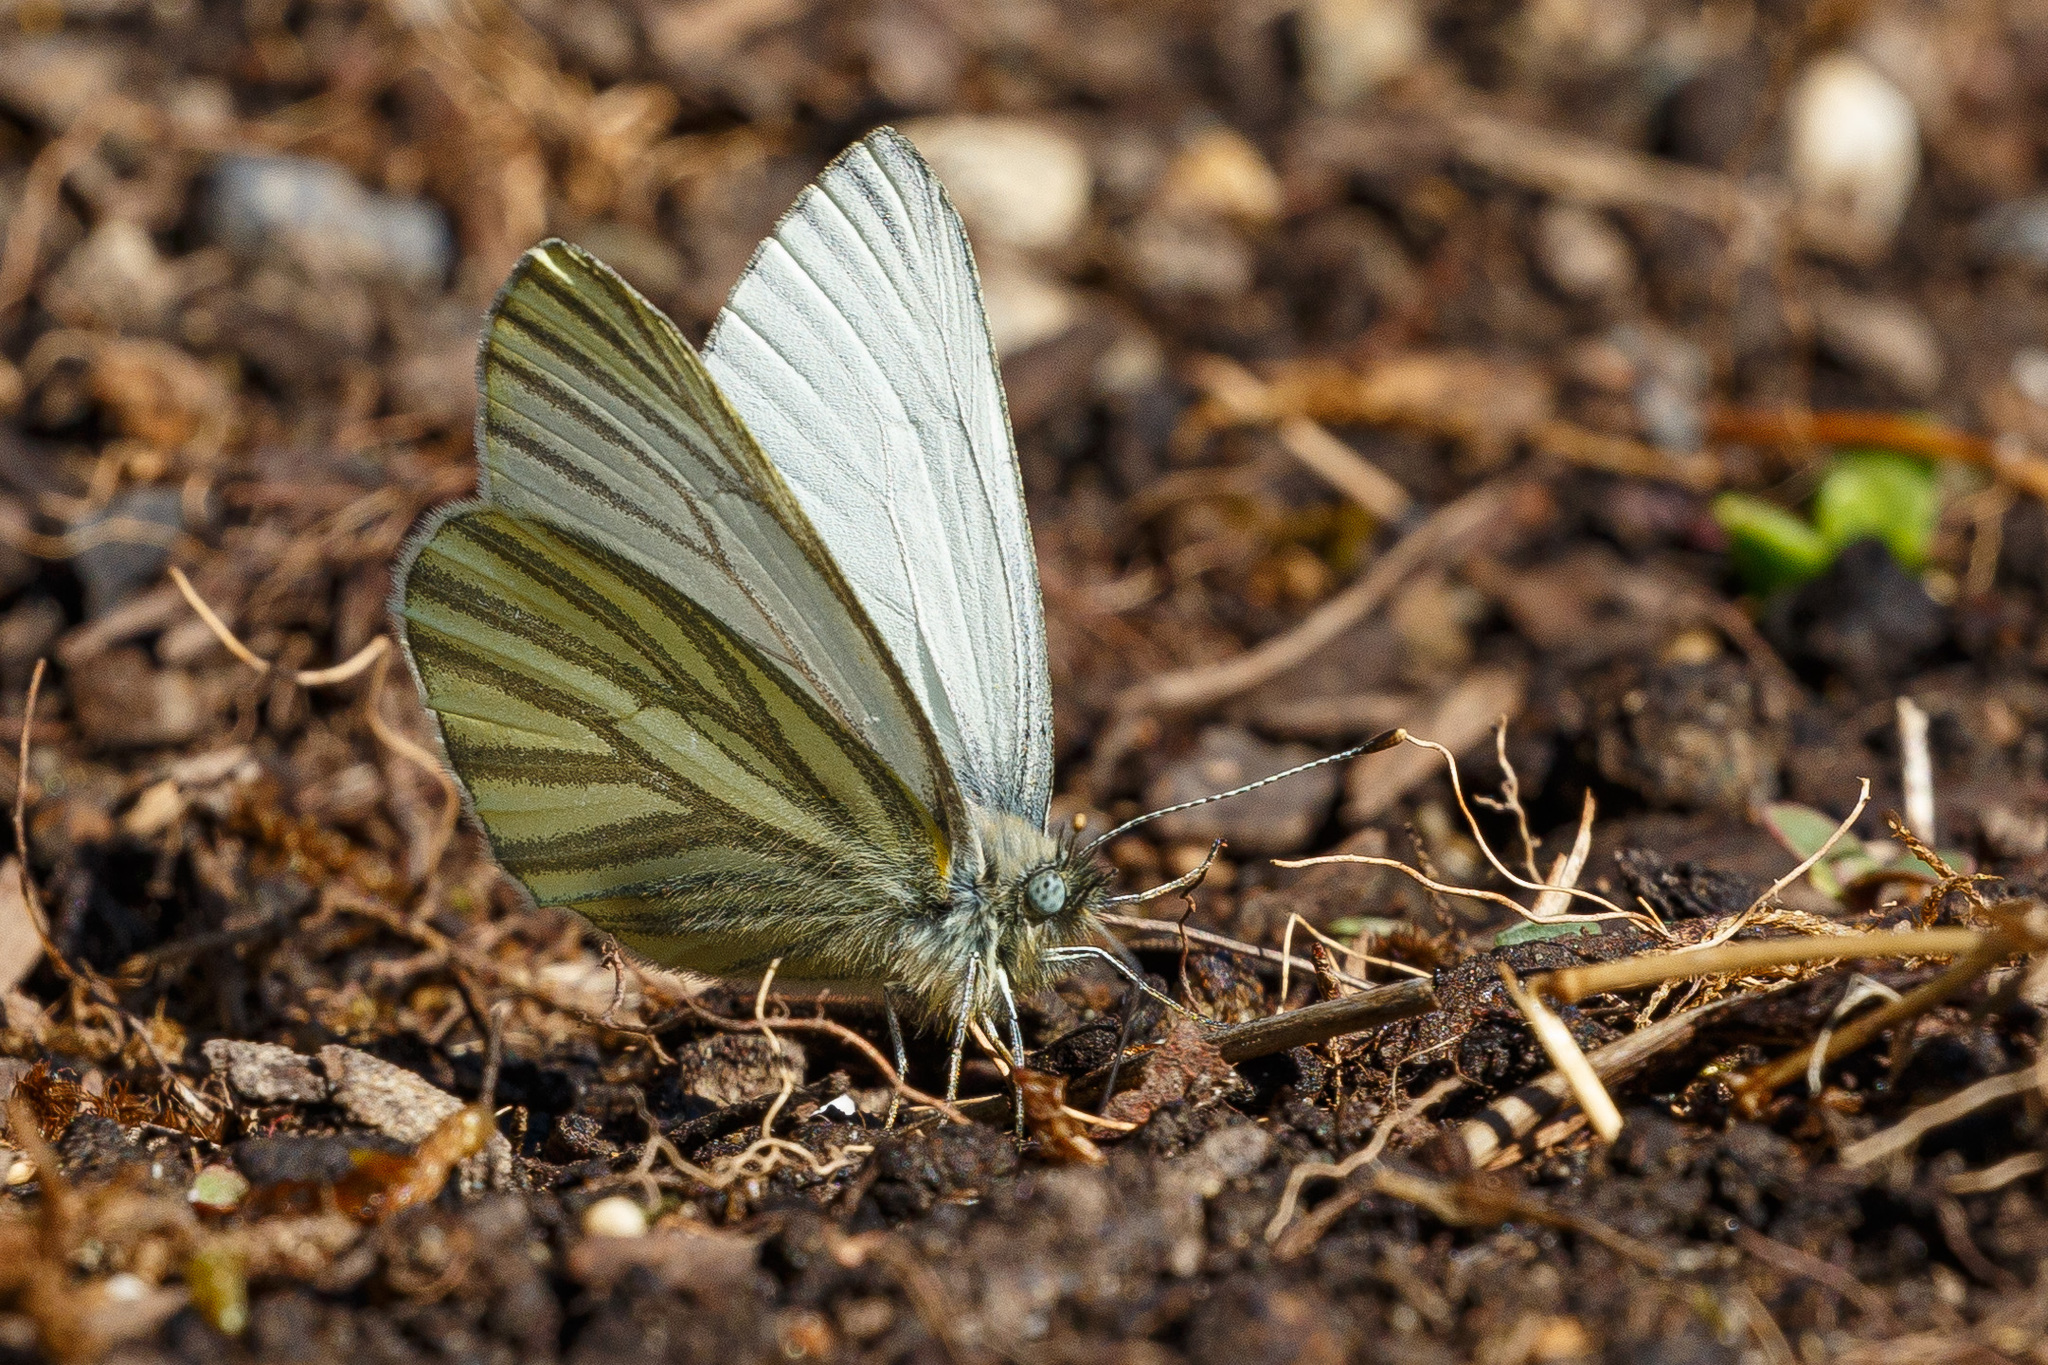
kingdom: Animalia
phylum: Arthropoda
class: Insecta
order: Lepidoptera
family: Pieridae
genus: Pieris
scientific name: Pieris marginalis
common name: Margined white
